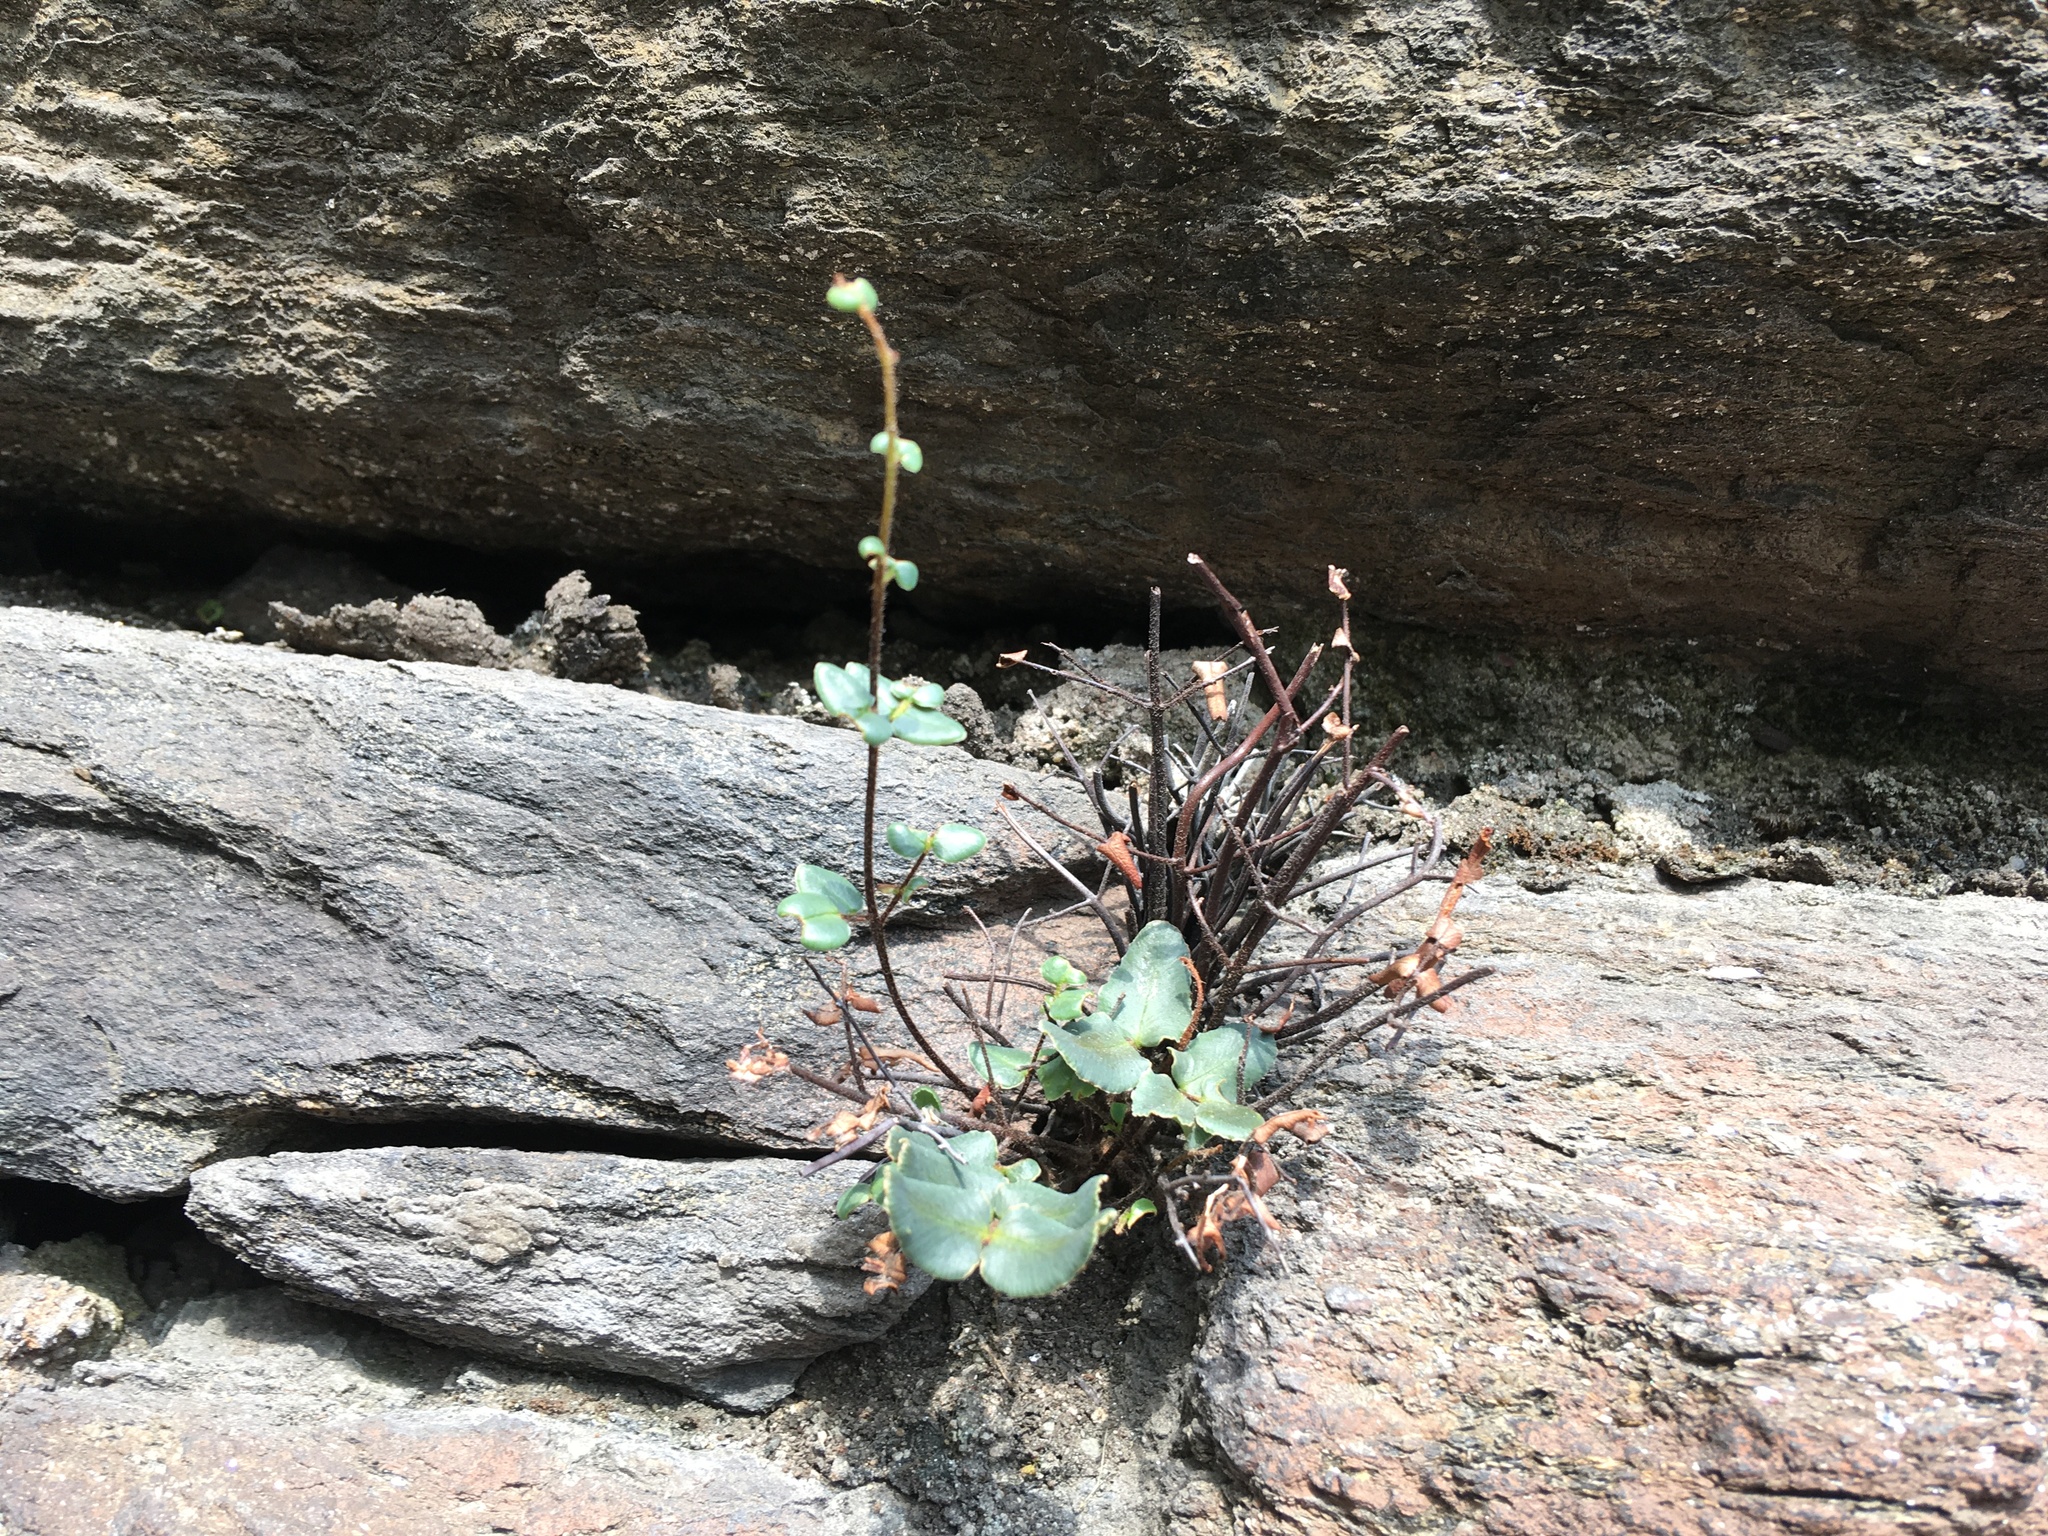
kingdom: Plantae
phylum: Tracheophyta
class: Polypodiopsida
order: Polypodiales
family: Pteridaceae
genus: Pellaea
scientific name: Pellaea atropurpurea
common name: Hairy cliffbrake
